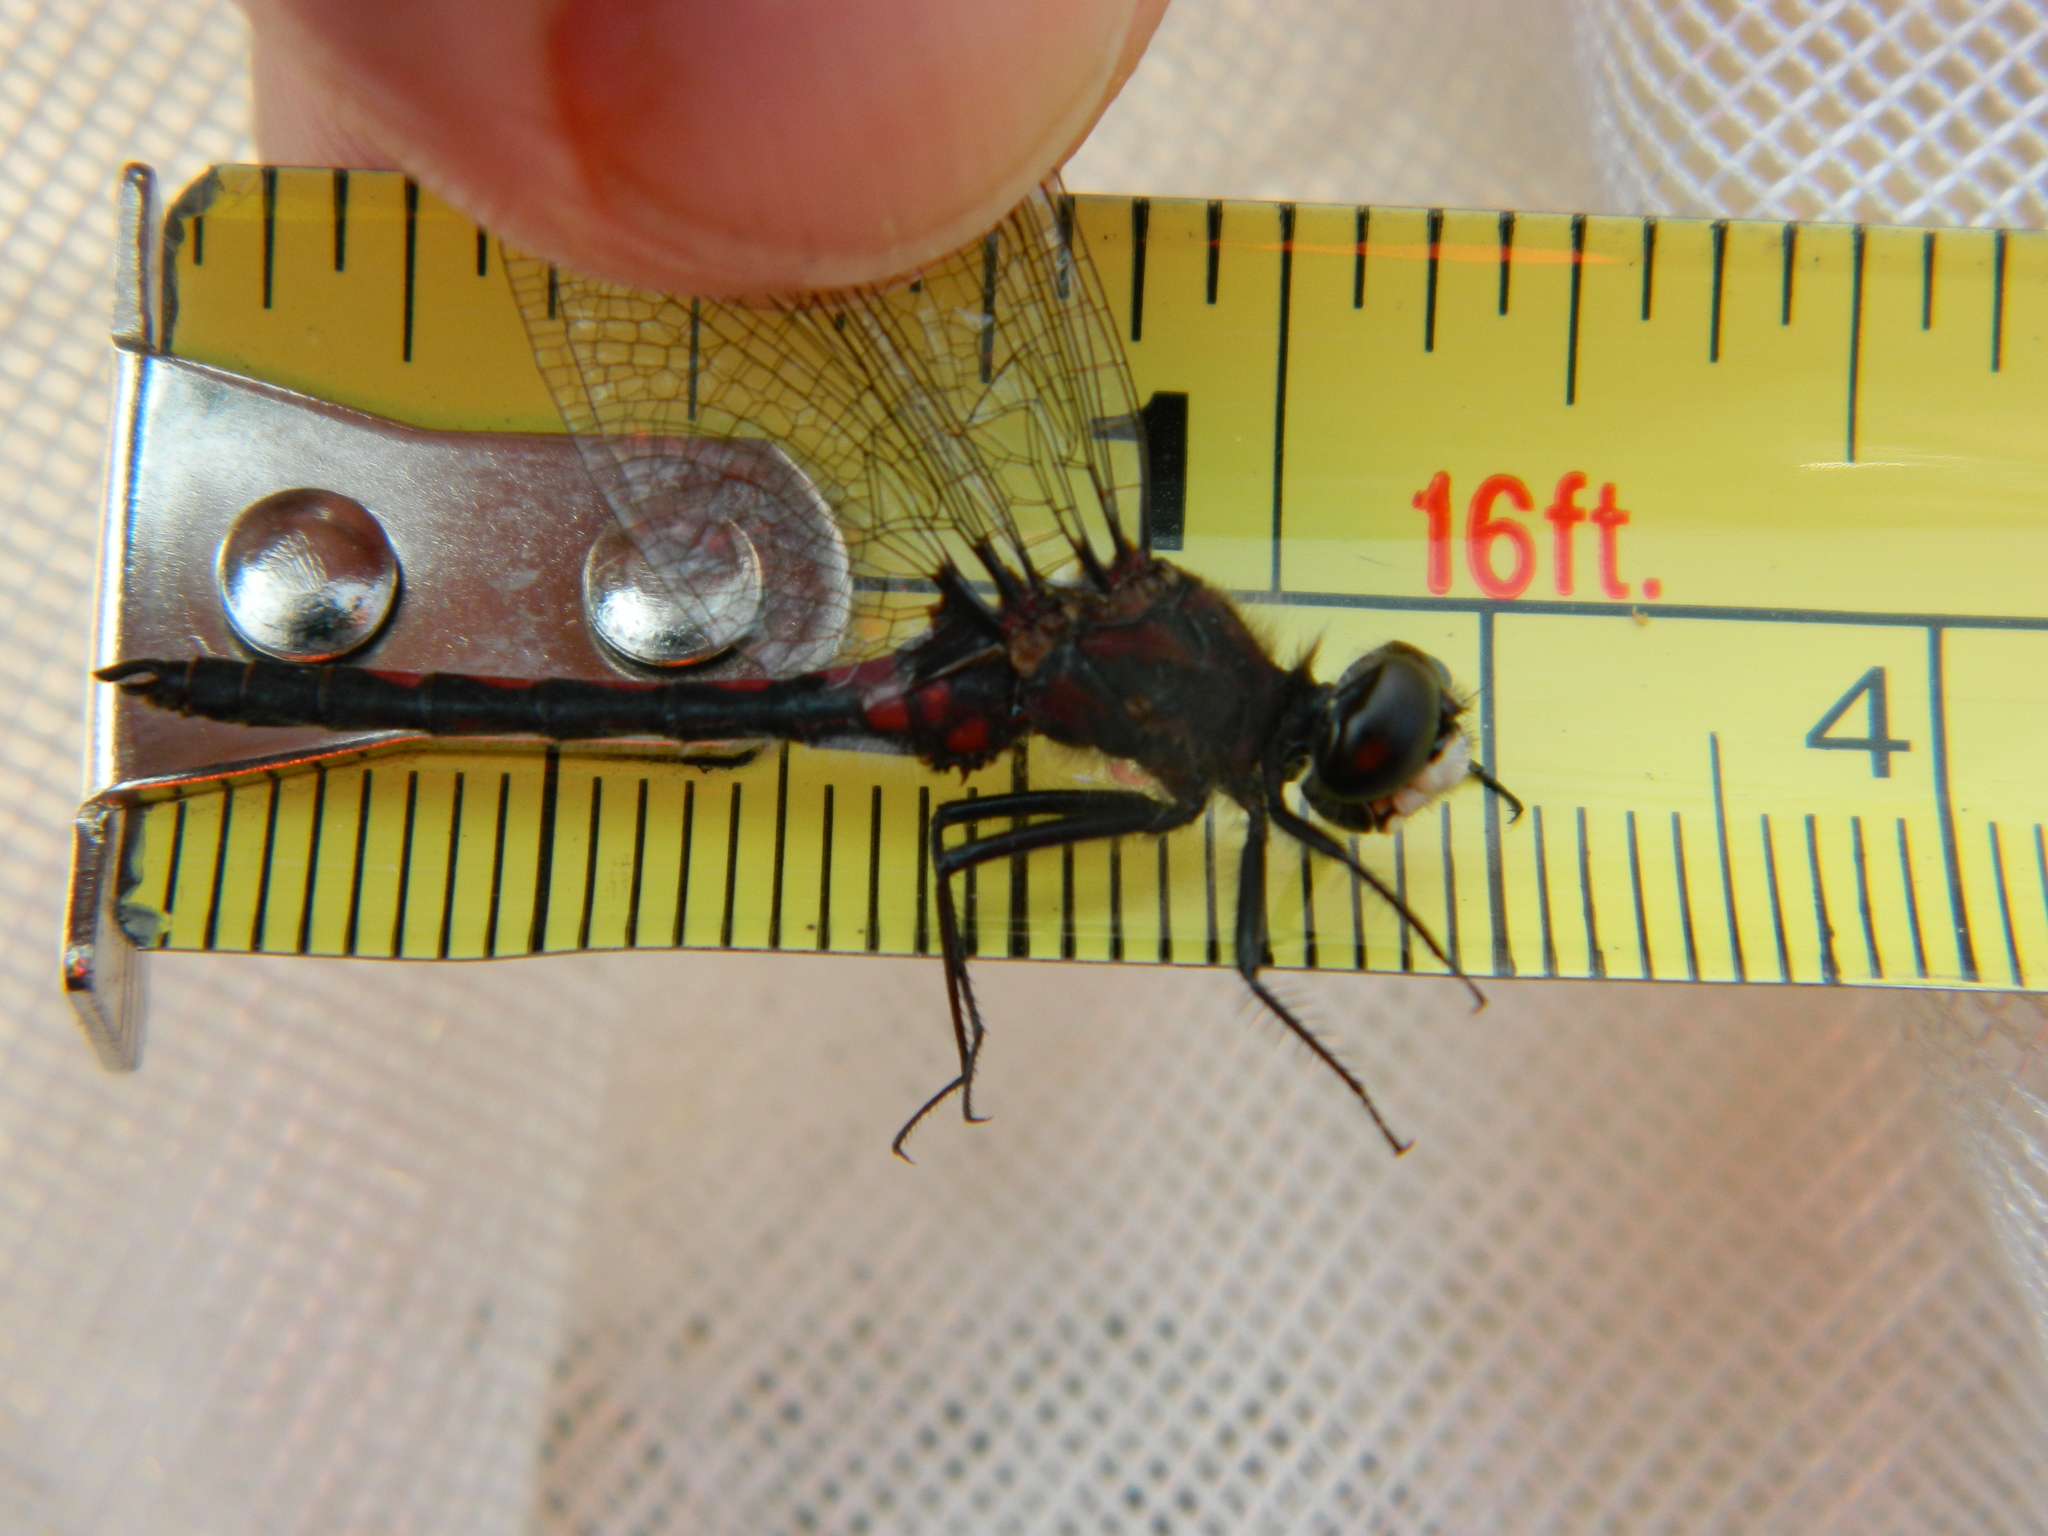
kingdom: Animalia
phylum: Arthropoda
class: Insecta
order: Odonata
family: Libellulidae
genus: Leucorrhinia
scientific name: Leucorrhinia hudsonica
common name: Hudsonian whiteface
